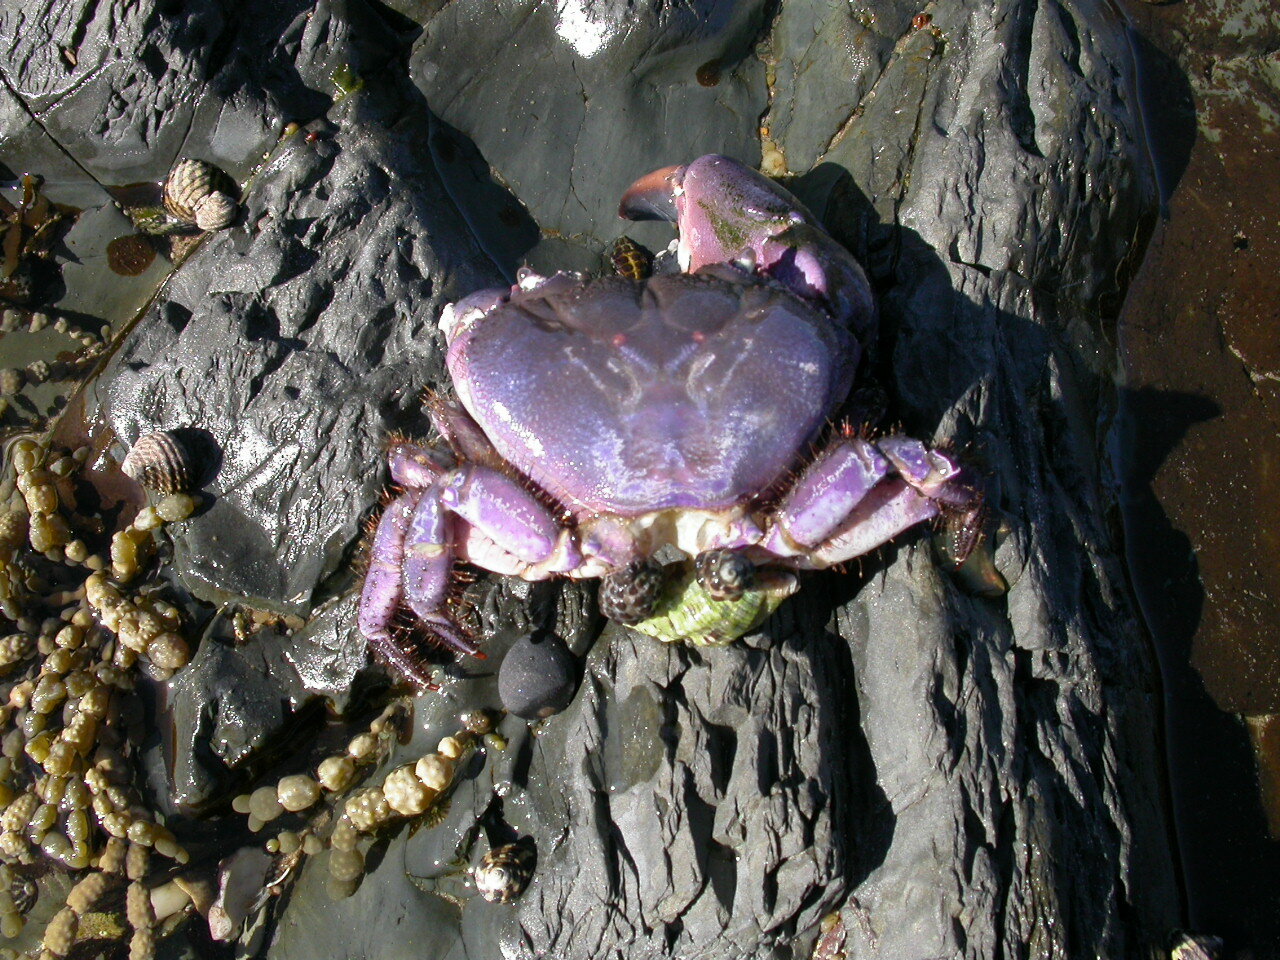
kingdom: Animalia
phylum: Mollusca
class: Gastropoda
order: Neogastropoda
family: Muricidae
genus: Tenguella
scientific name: Tenguella marginalba
